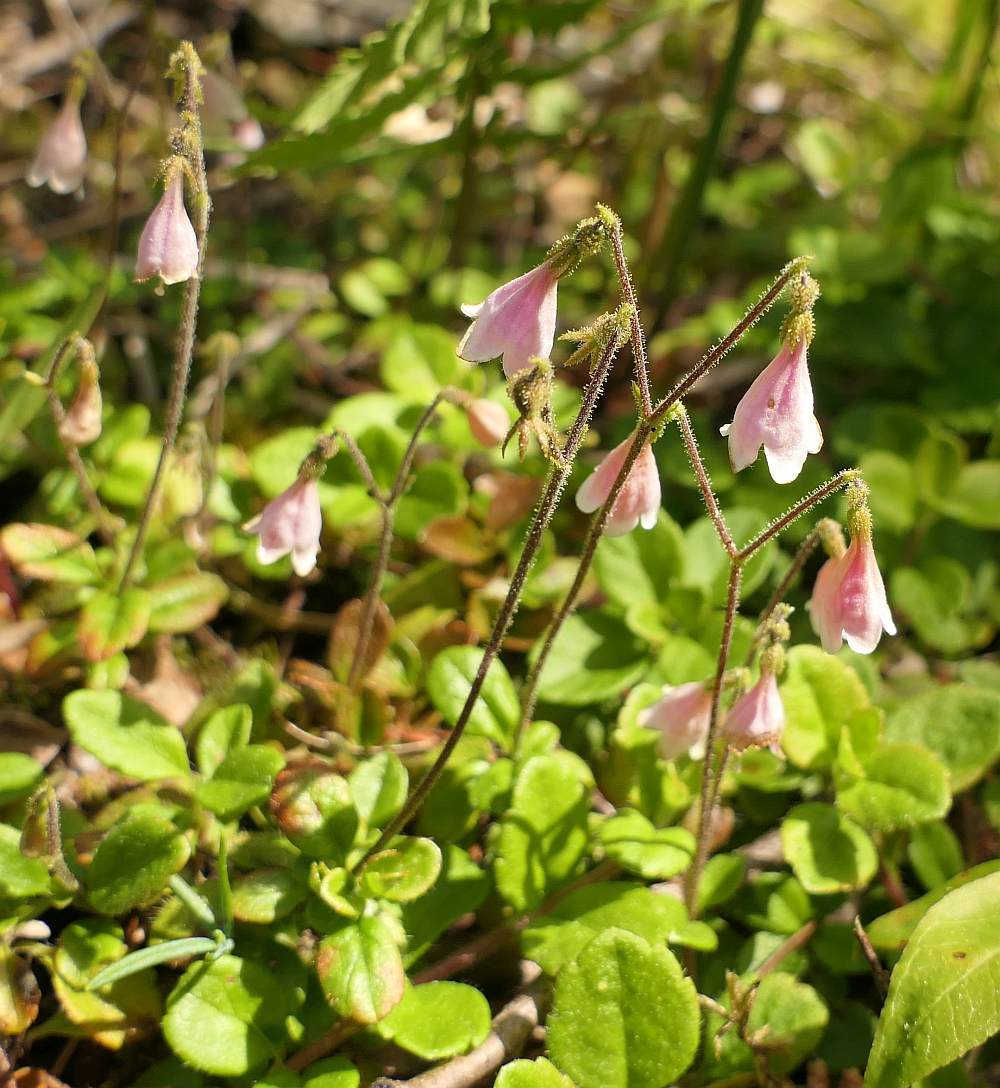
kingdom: Plantae
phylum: Tracheophyta
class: Magnoliopsida
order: Dipsacales
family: Caprifoliaceae
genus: Linnaea
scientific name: Linnaea borealis
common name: Twinflower
